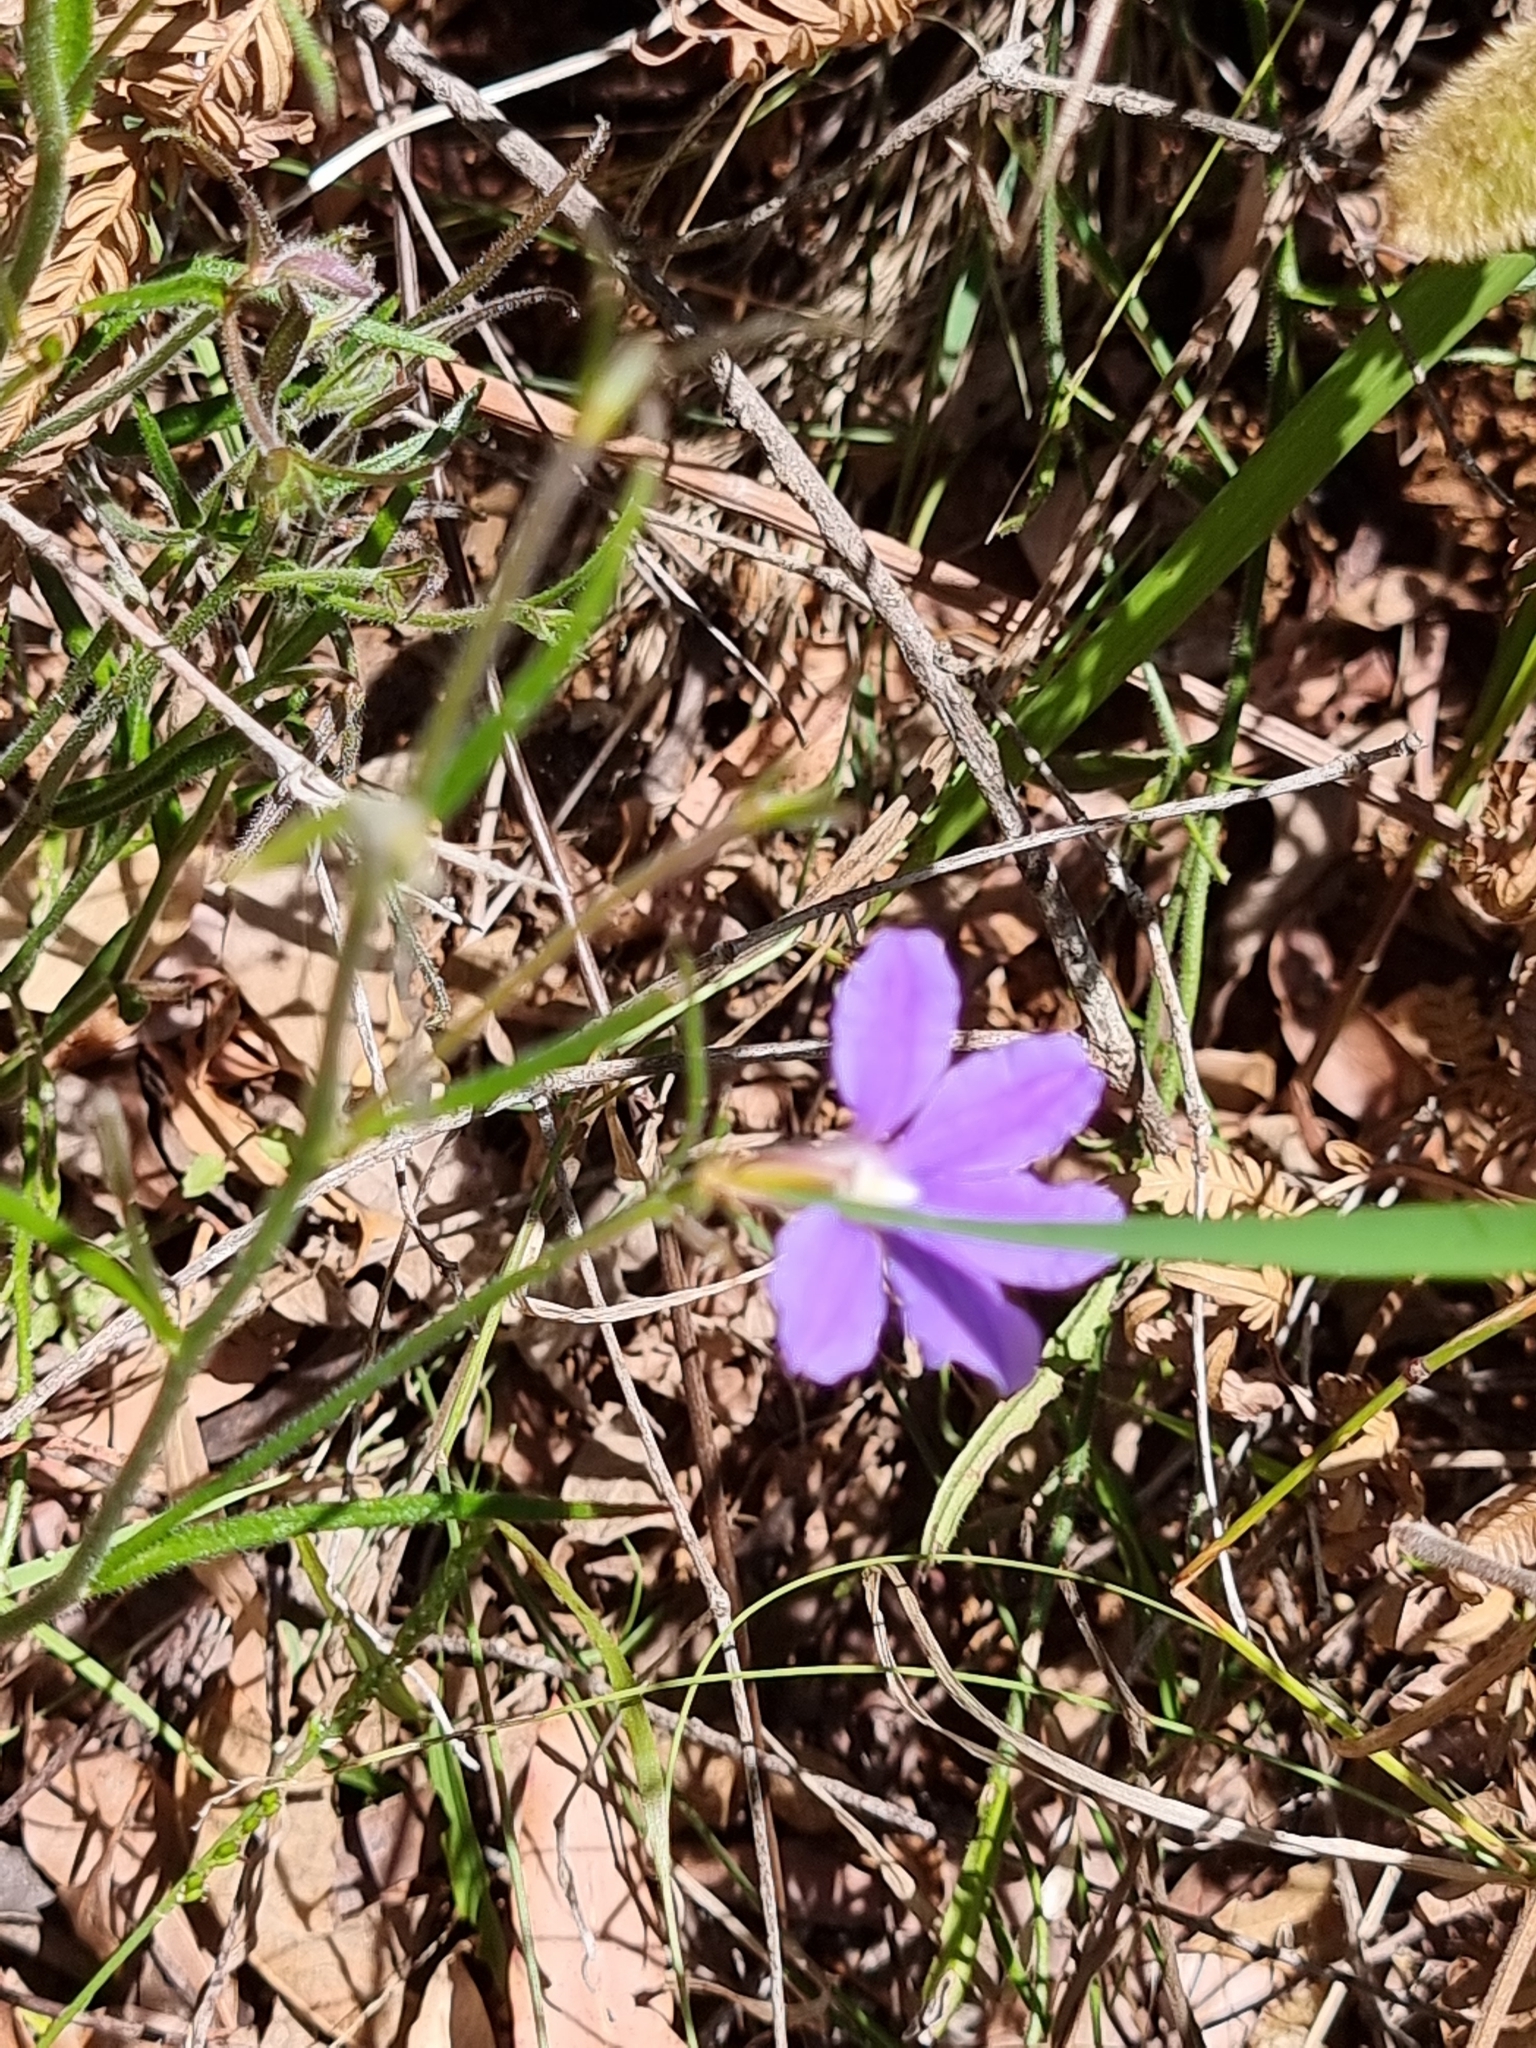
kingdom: Plantae
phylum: Tracheophyta
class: Magnoliopsida
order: Asterales
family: Goodeniaceae
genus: Scaevola
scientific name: Scaevola ramosissima
